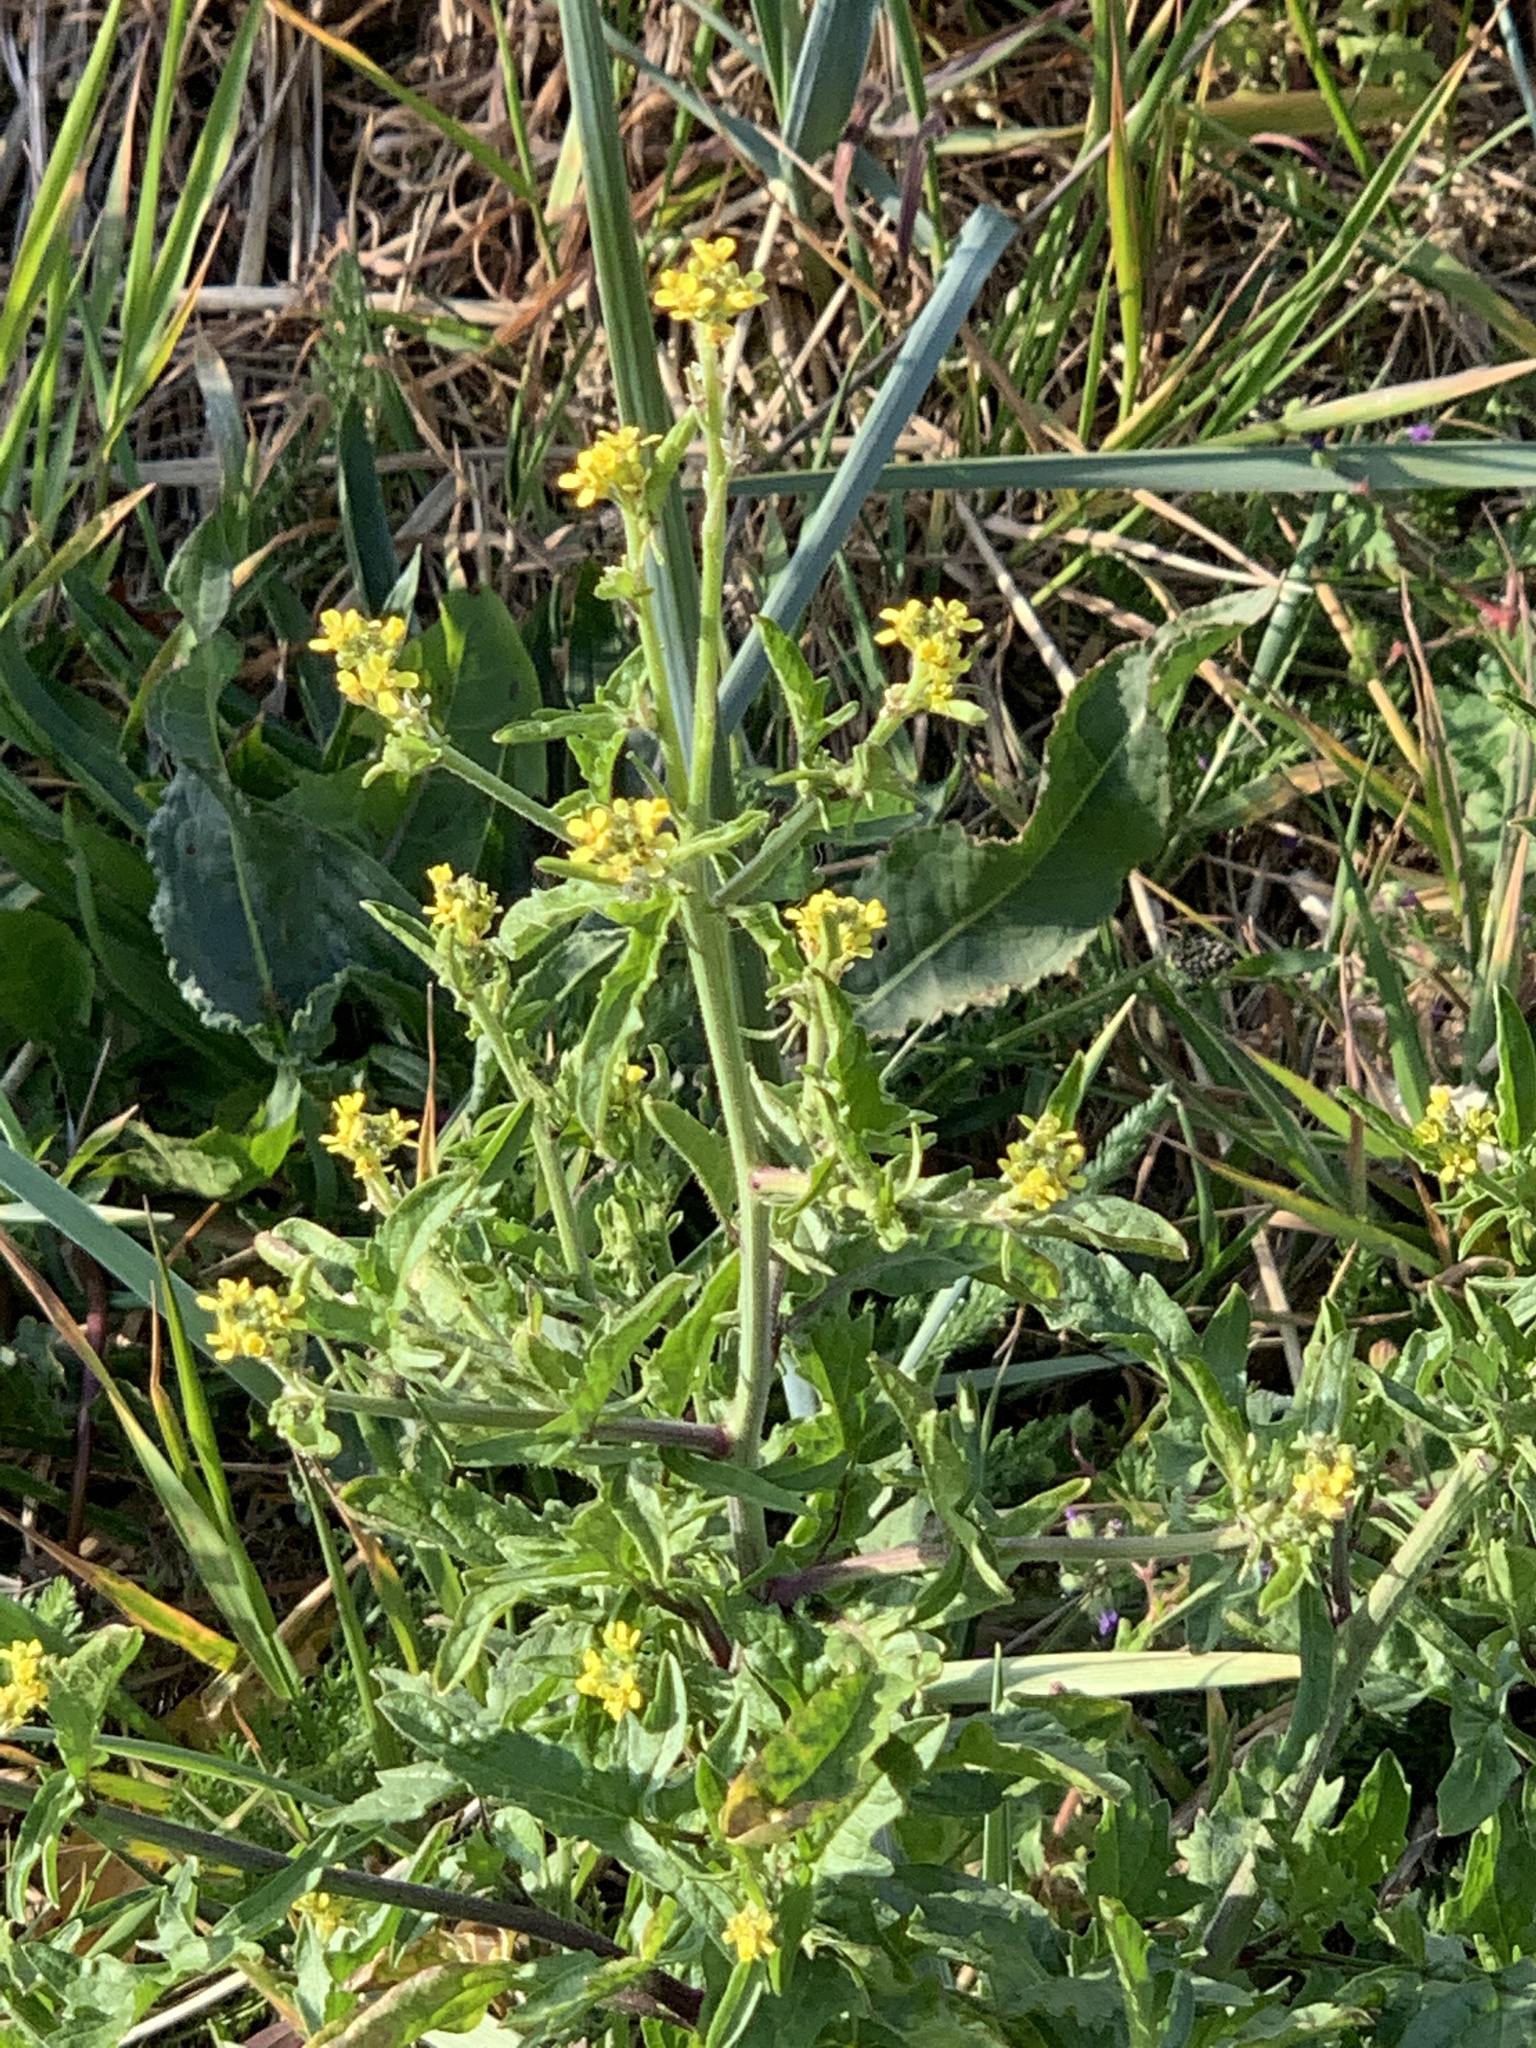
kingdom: Plantae
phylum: Tracheophyta
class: Magnoliopsida
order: Brassicales
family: Brassicaceae
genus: Sisymbrium
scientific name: Sisymbrium officinale
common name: Hedge mustard
